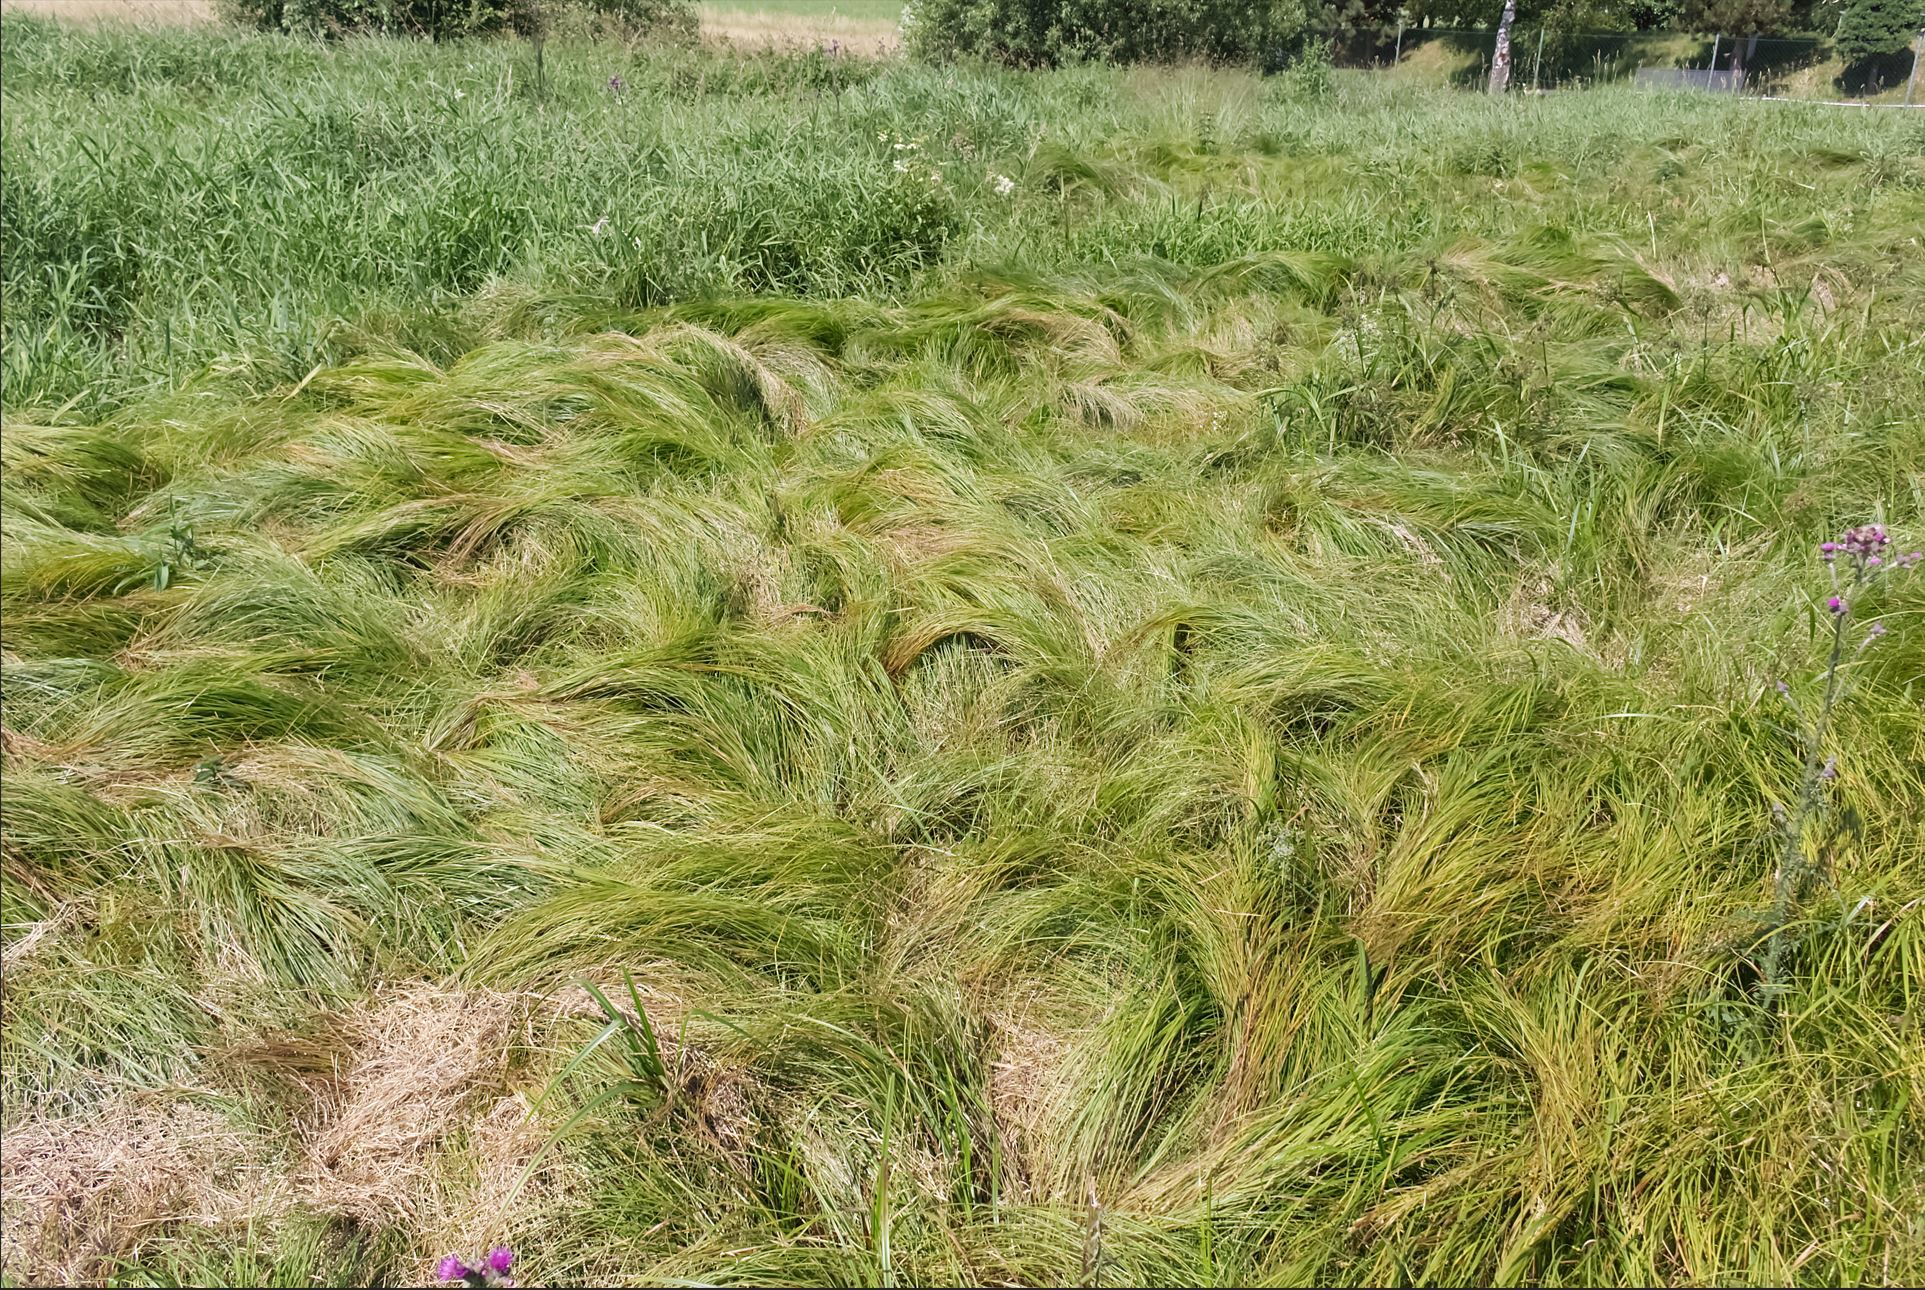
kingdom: Plantae
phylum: Tracheophyta
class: Liliopsida
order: Poales
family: Cyperaceae
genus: Carex
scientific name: Carex brizoides
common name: Quaking-grass sedge
